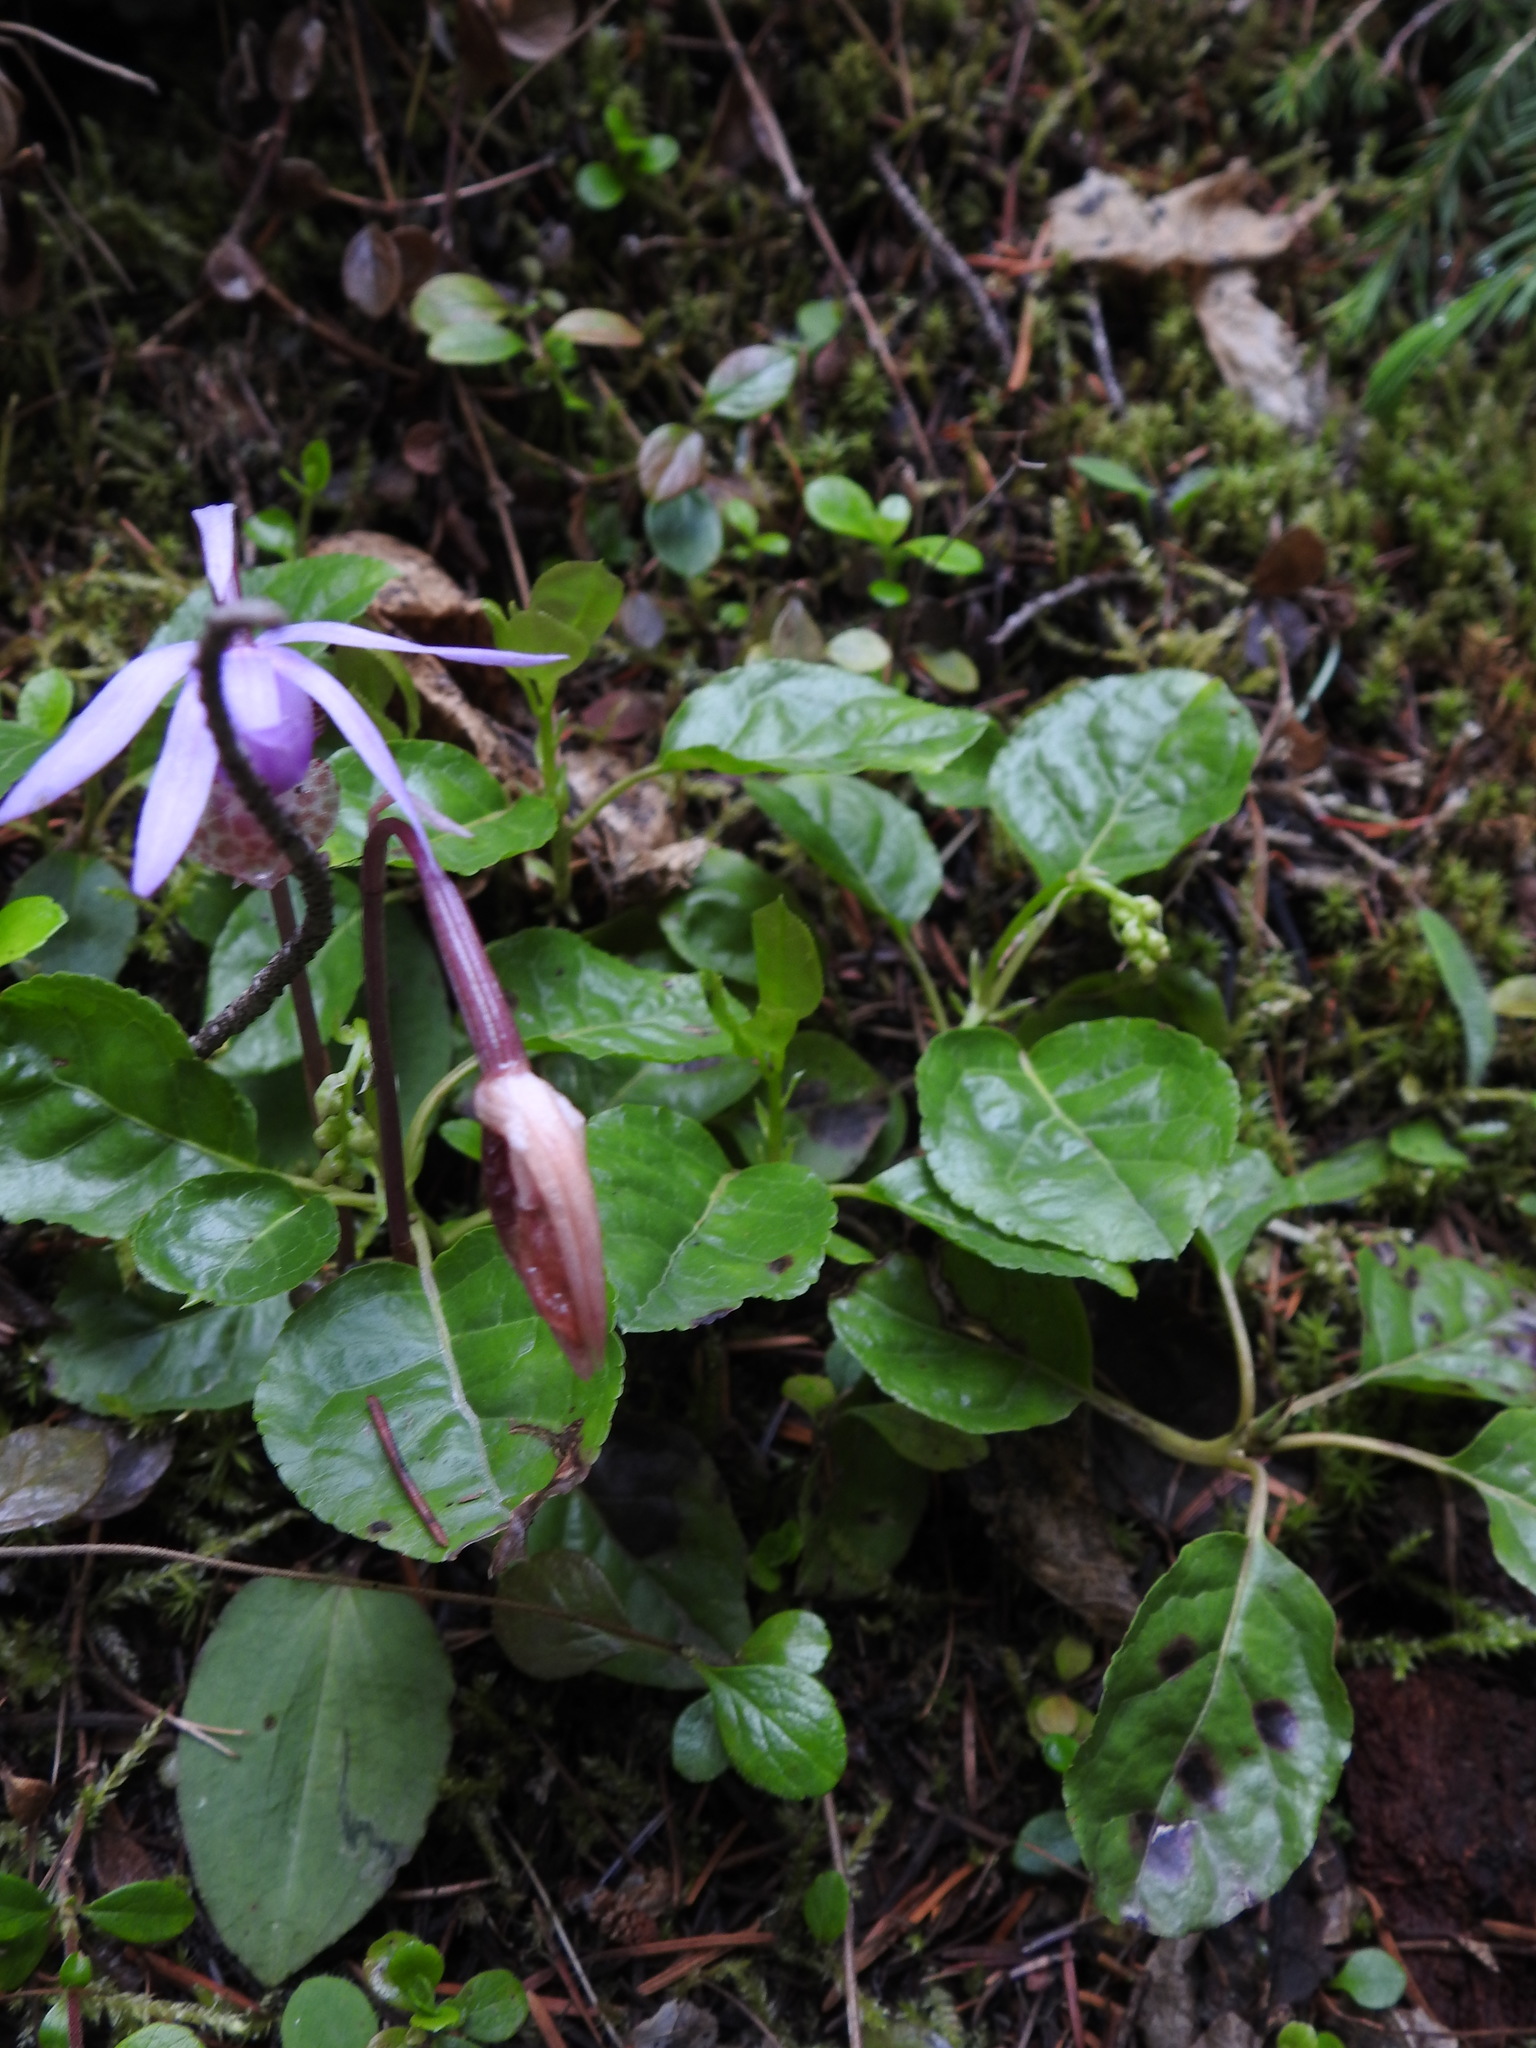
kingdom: Plantae
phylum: Tracheophyta
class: Liliopsida
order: Asparagales
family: Orchidaceae
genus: Calypso
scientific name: Calypso bulbosa
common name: Calypso
